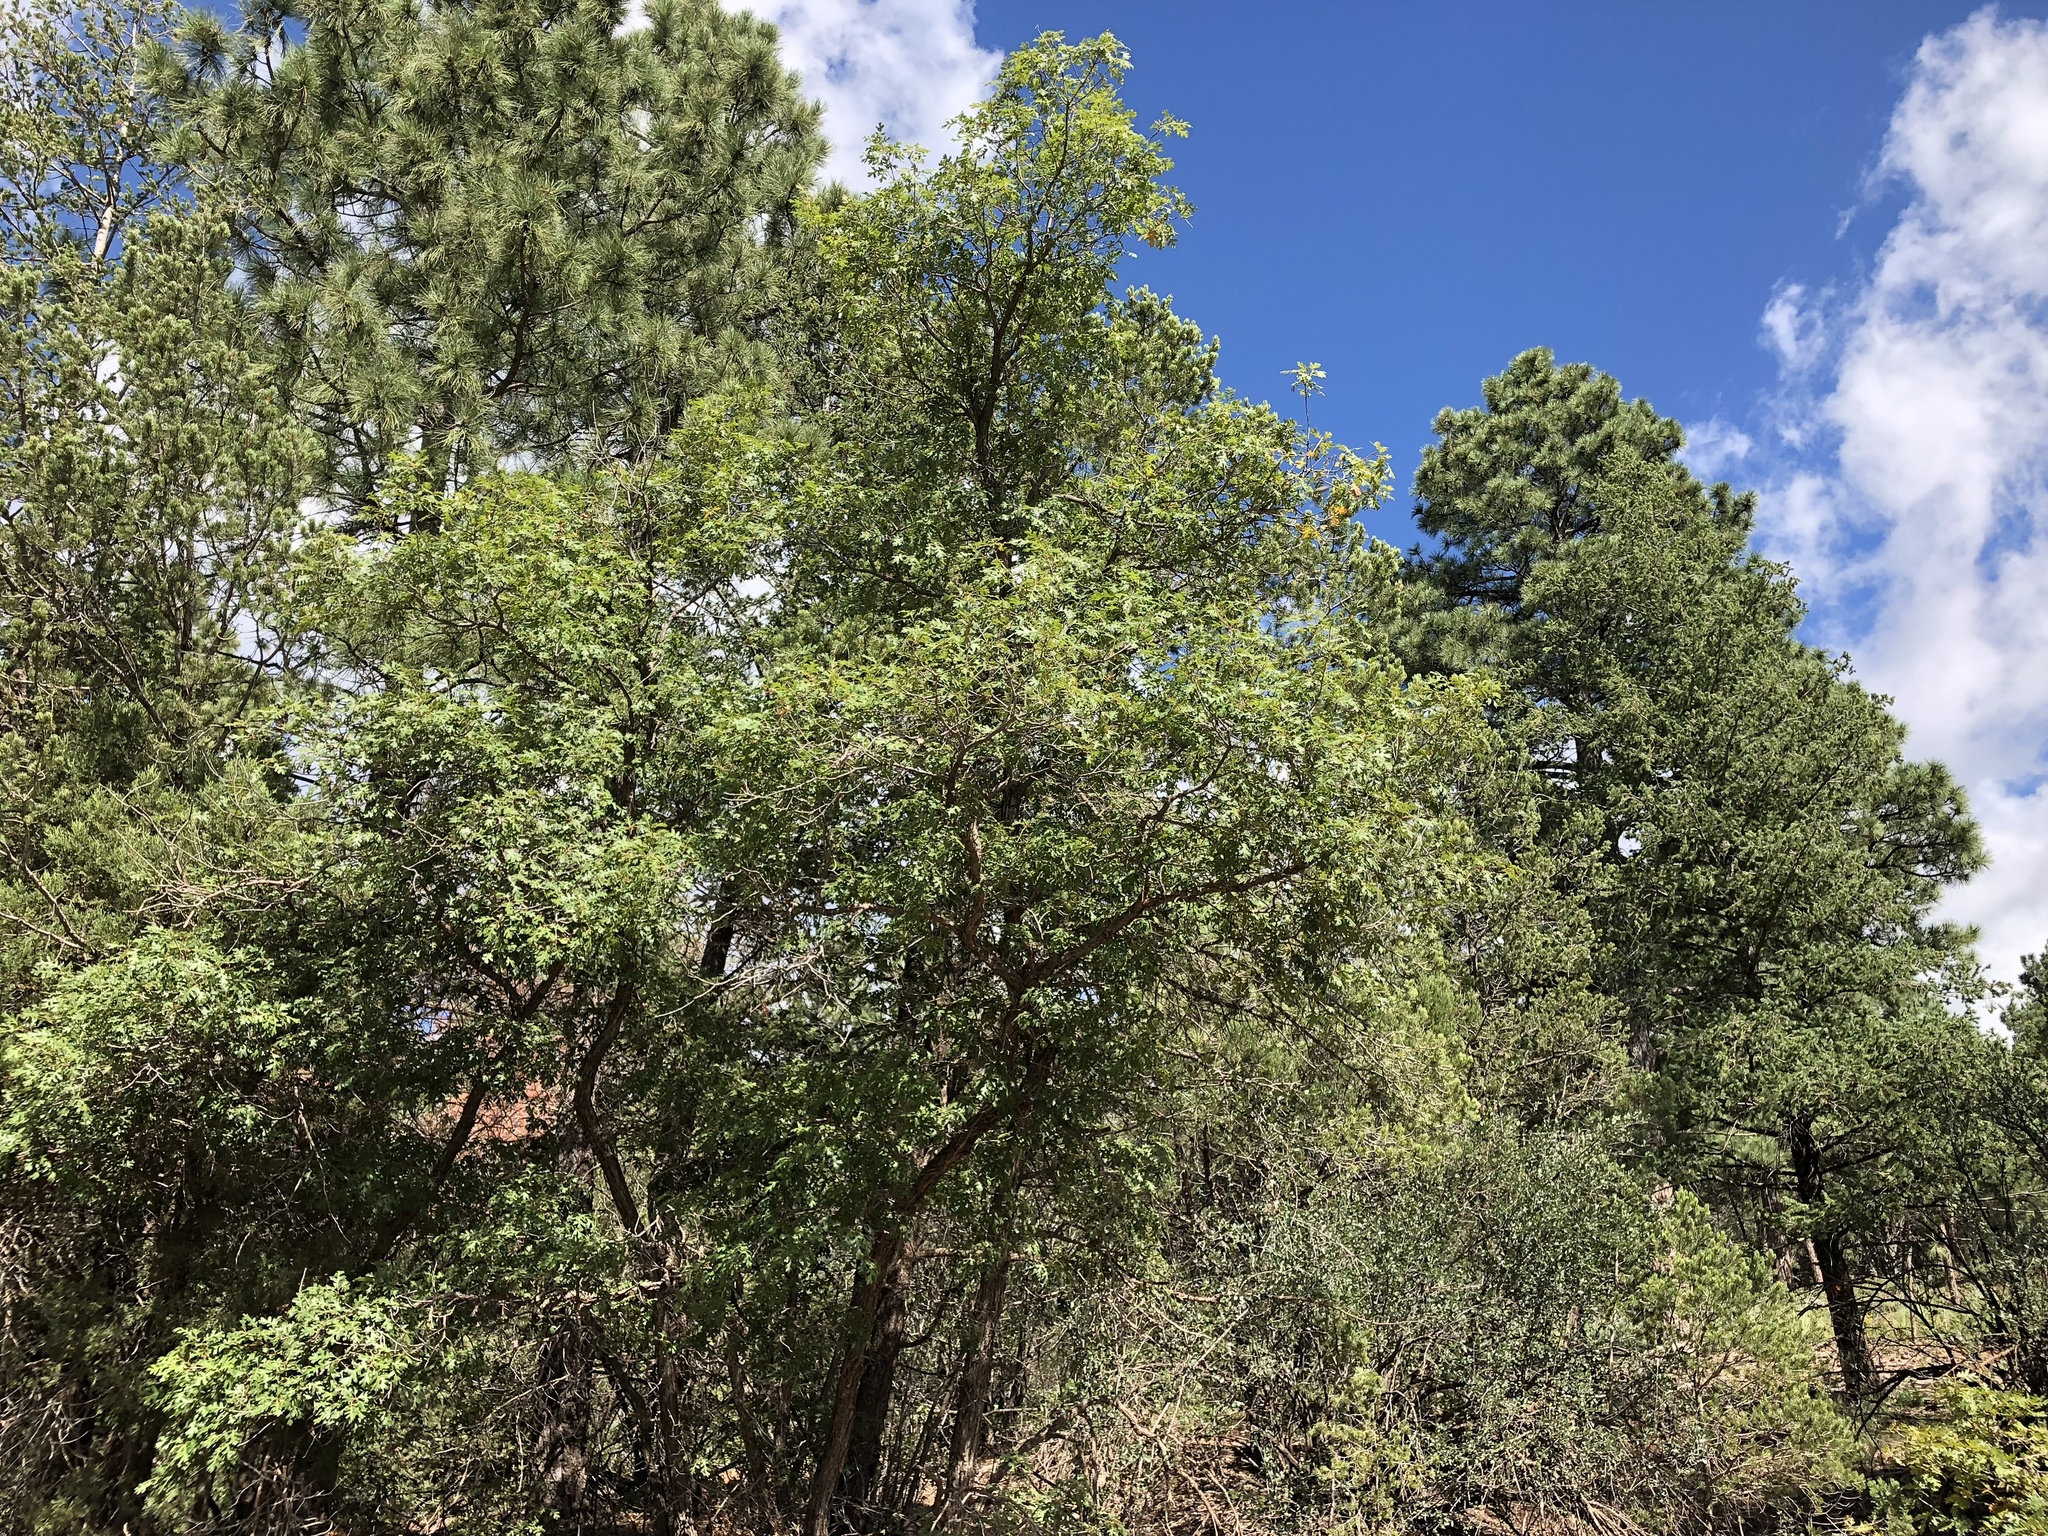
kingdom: Plantae
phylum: Tracheophyta
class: Magnoliopsida
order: Fagales
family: Fagaceae
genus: Quercus
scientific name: Quercus gambelii
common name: Gambel oak
